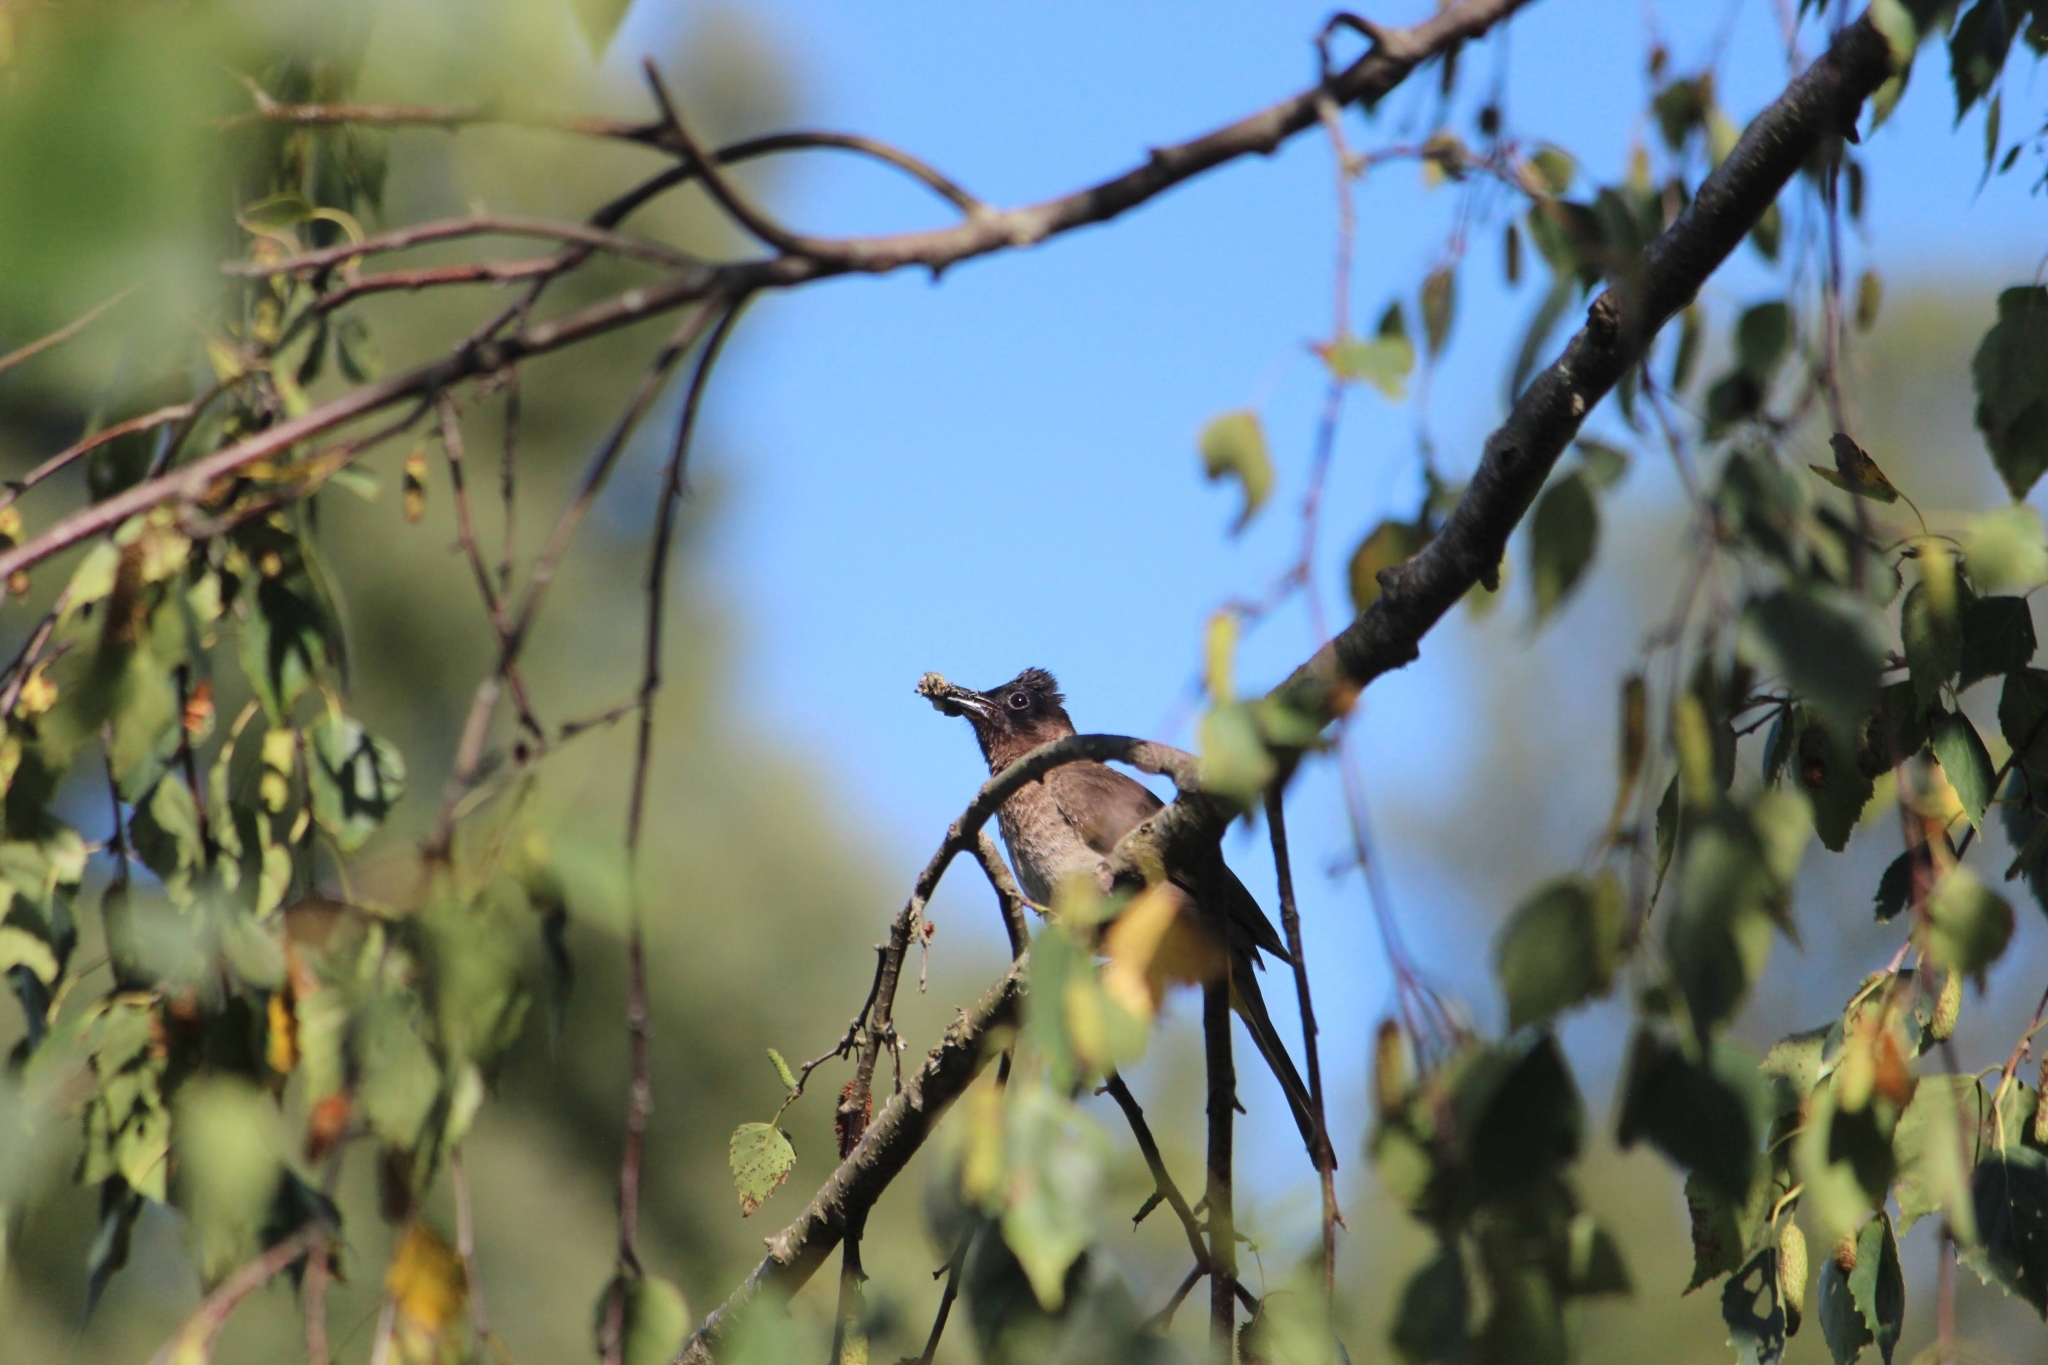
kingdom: Animalia
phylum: Chordata
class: Aves
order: Passeriformes
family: Pycnonotidae
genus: Pycnonotus
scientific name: Pycnonotus barbatus
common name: Common bulbul
